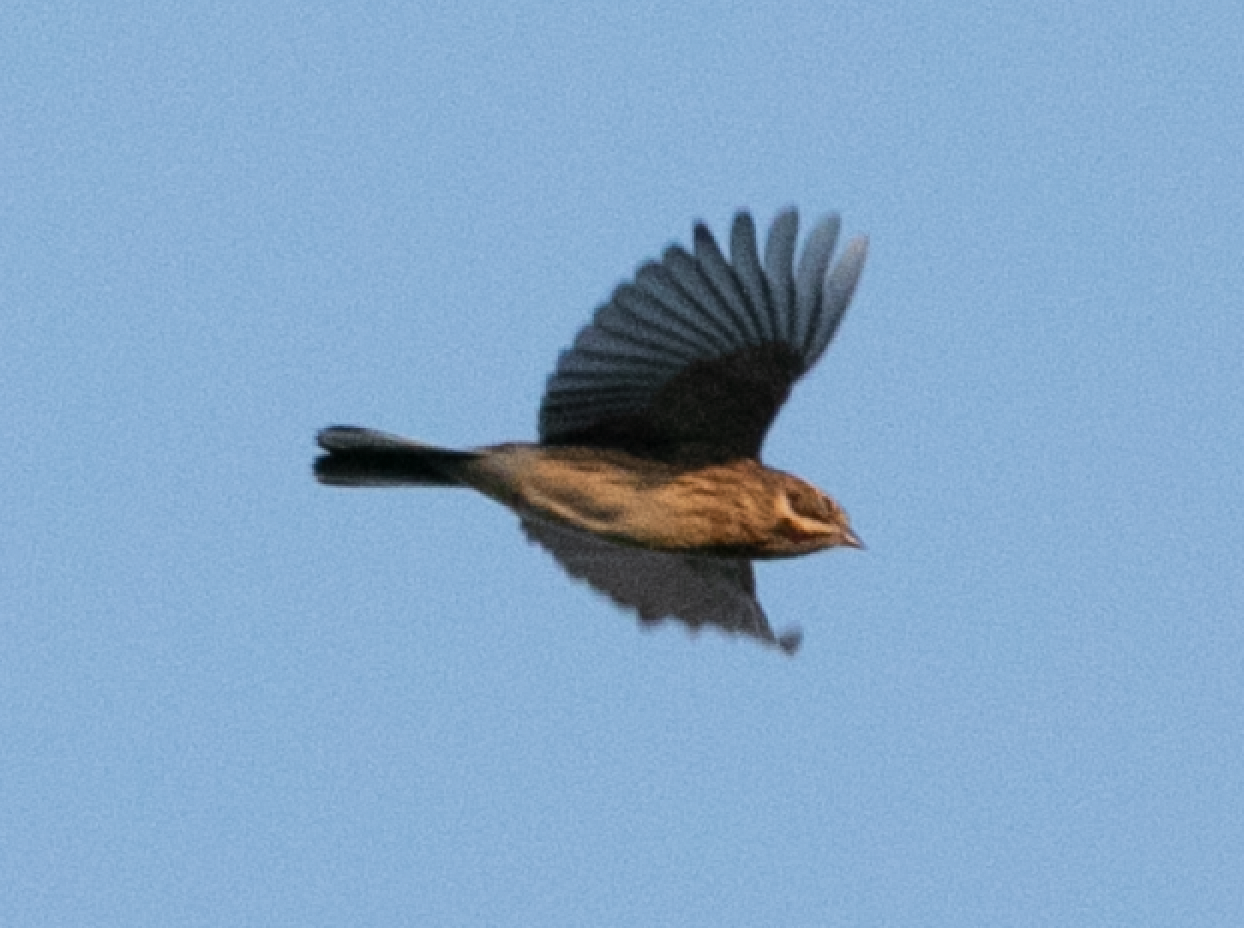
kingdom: Animalia
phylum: Chordata
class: Aves
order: Passeriformes
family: Emberizidae
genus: Emberiza
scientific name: Emberiza schoeniclus
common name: Reed bunting
